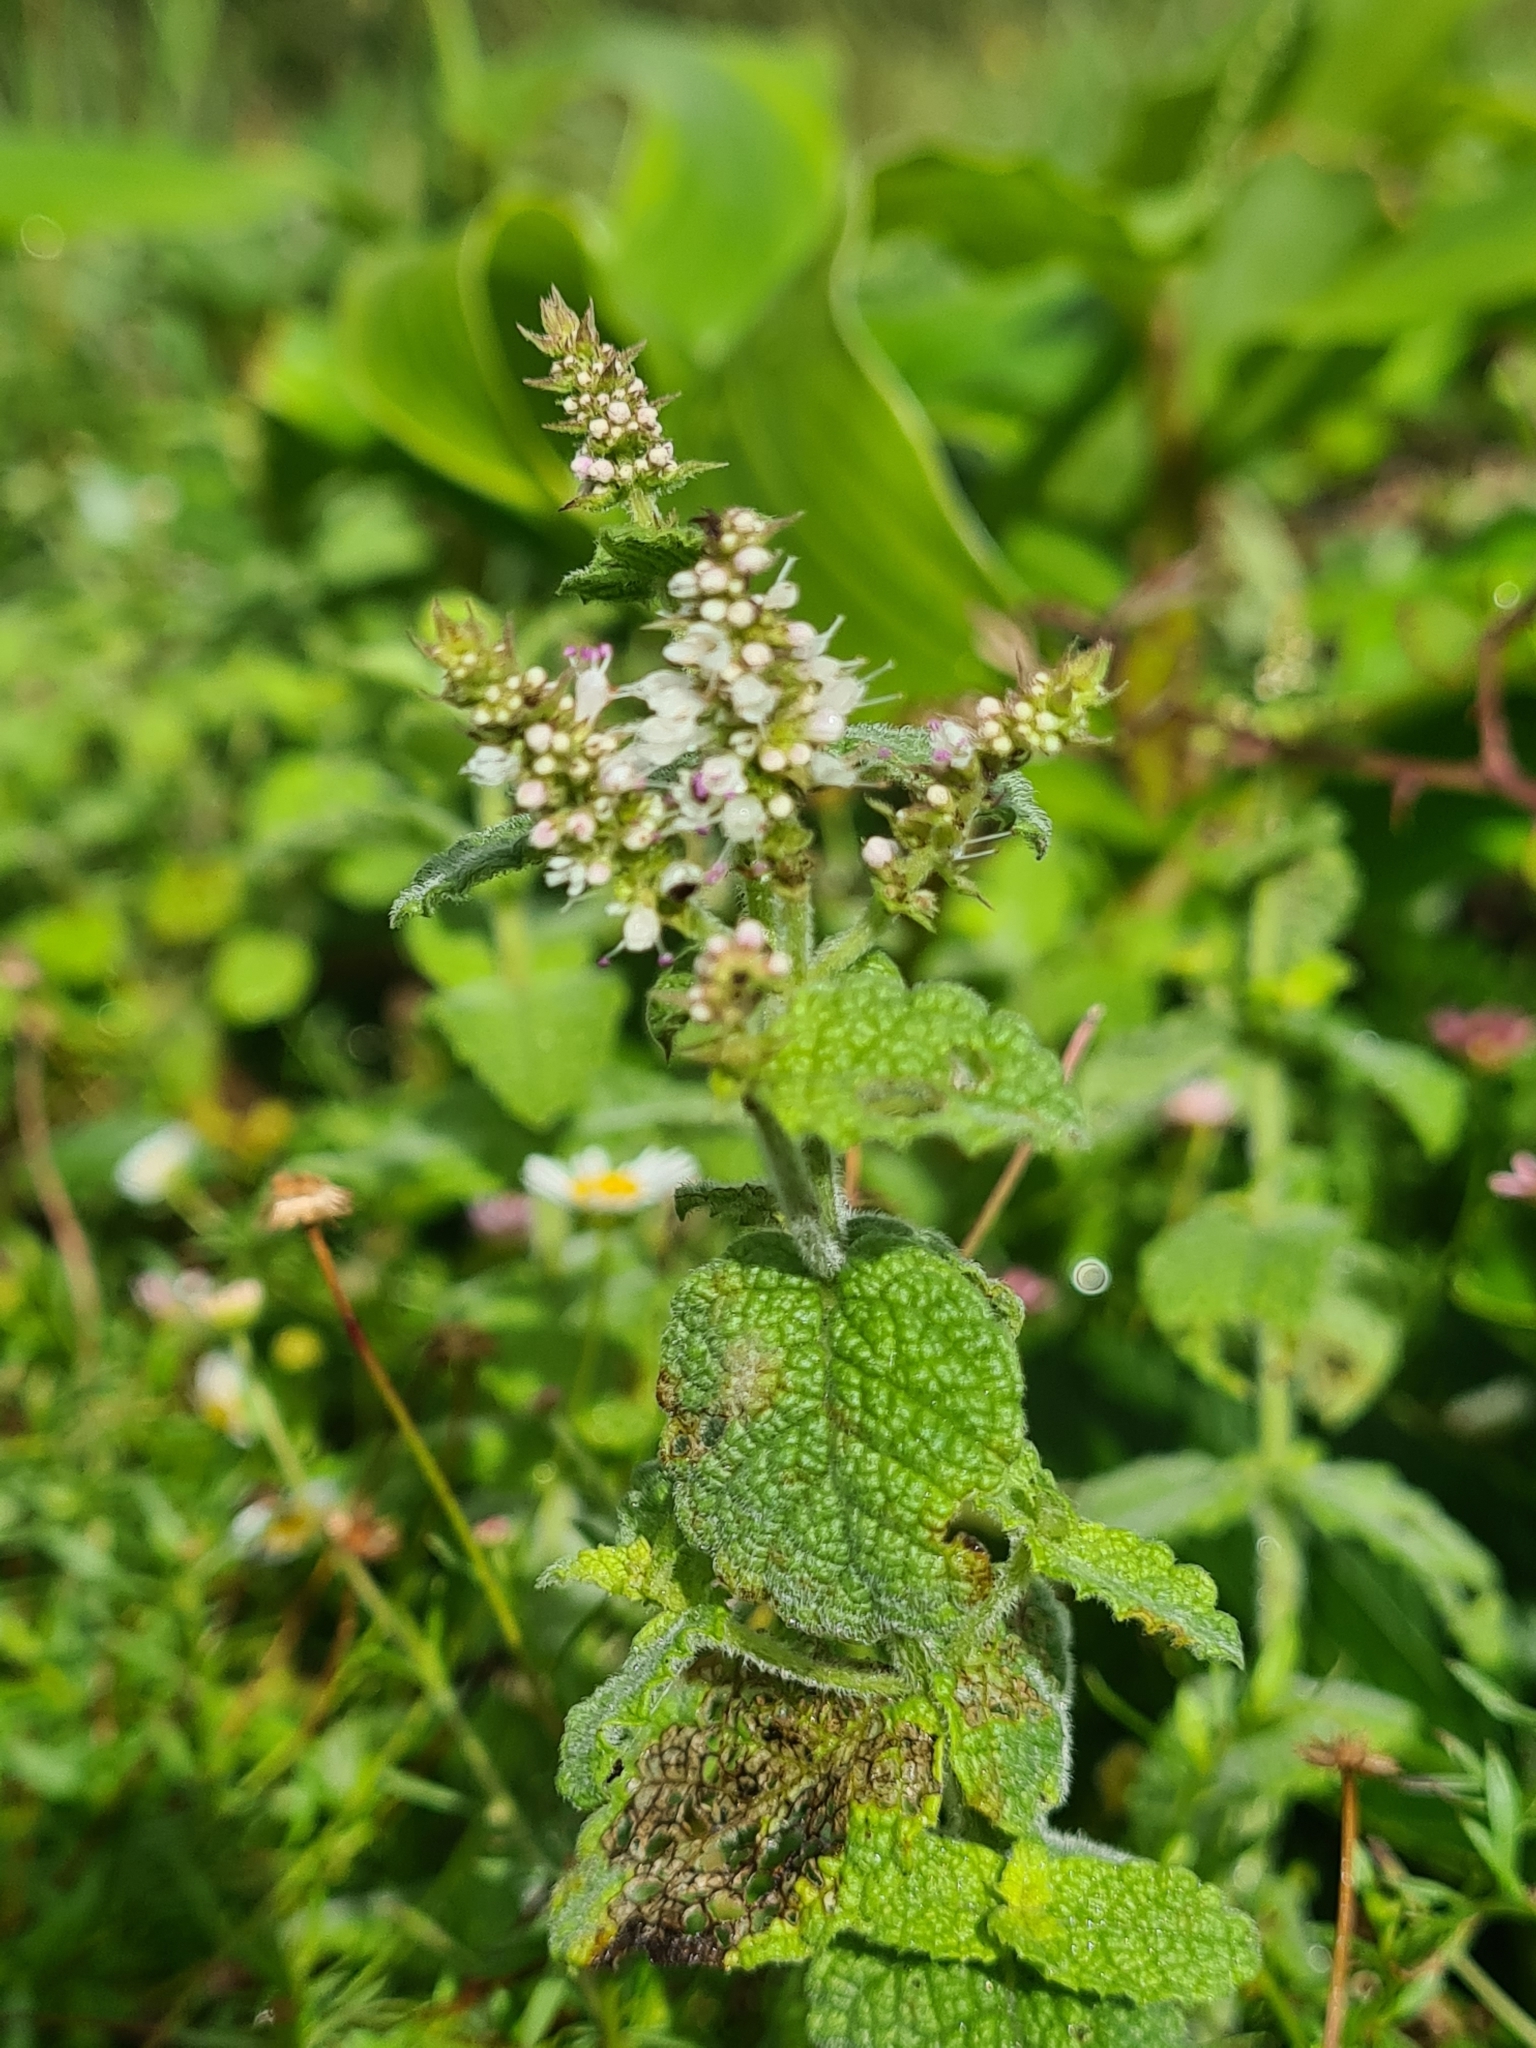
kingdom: Plantae
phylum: Tracheophyta
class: Magnoliopsida
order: Lamiales
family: Lamiaceae
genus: Mentha
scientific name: Mentha suaveolens
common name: Apple mint
